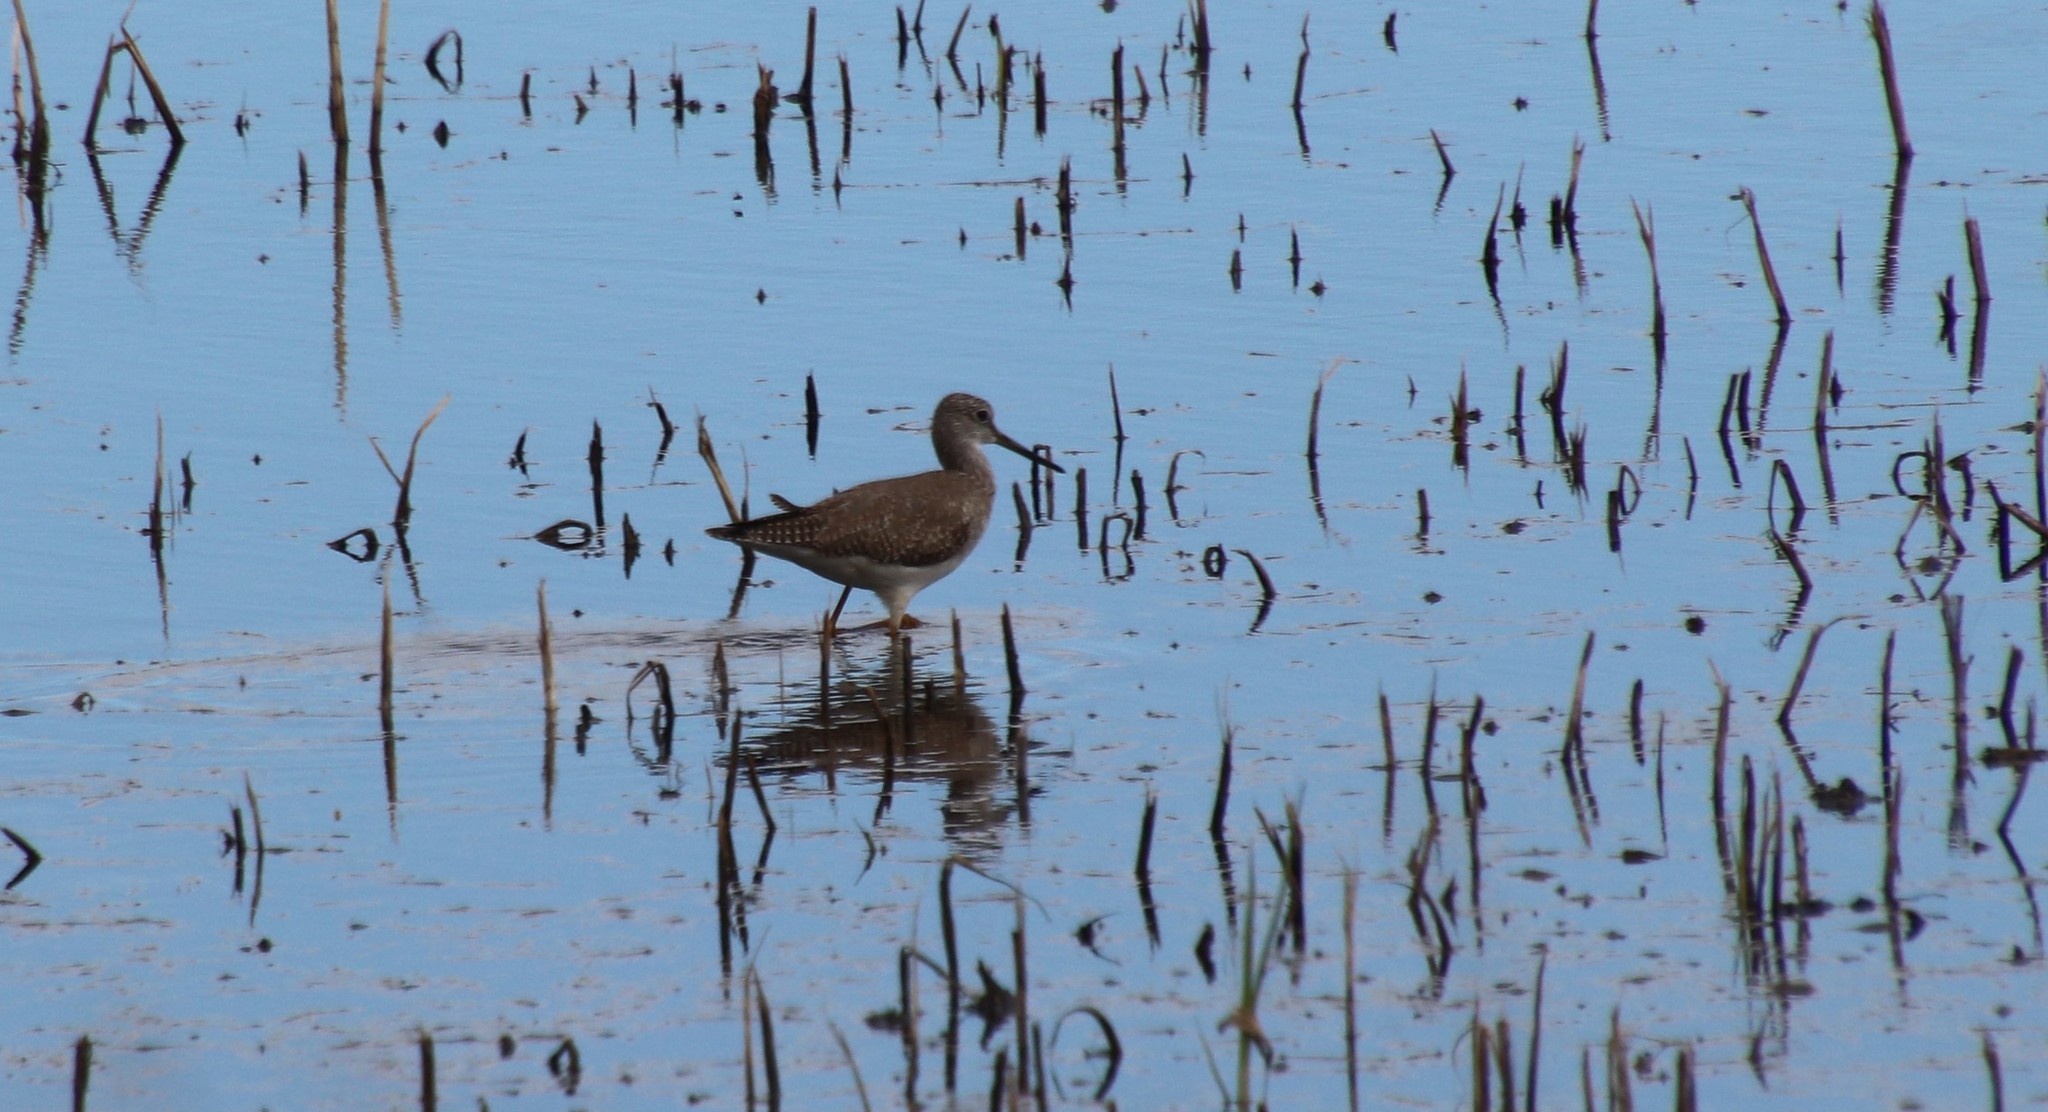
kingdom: Animalia
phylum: Chordata
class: Aves
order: Charadriiformes
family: Scolopacidae
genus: Tringa
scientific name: Tringa melanoleuca
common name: Greater yellowlegs
